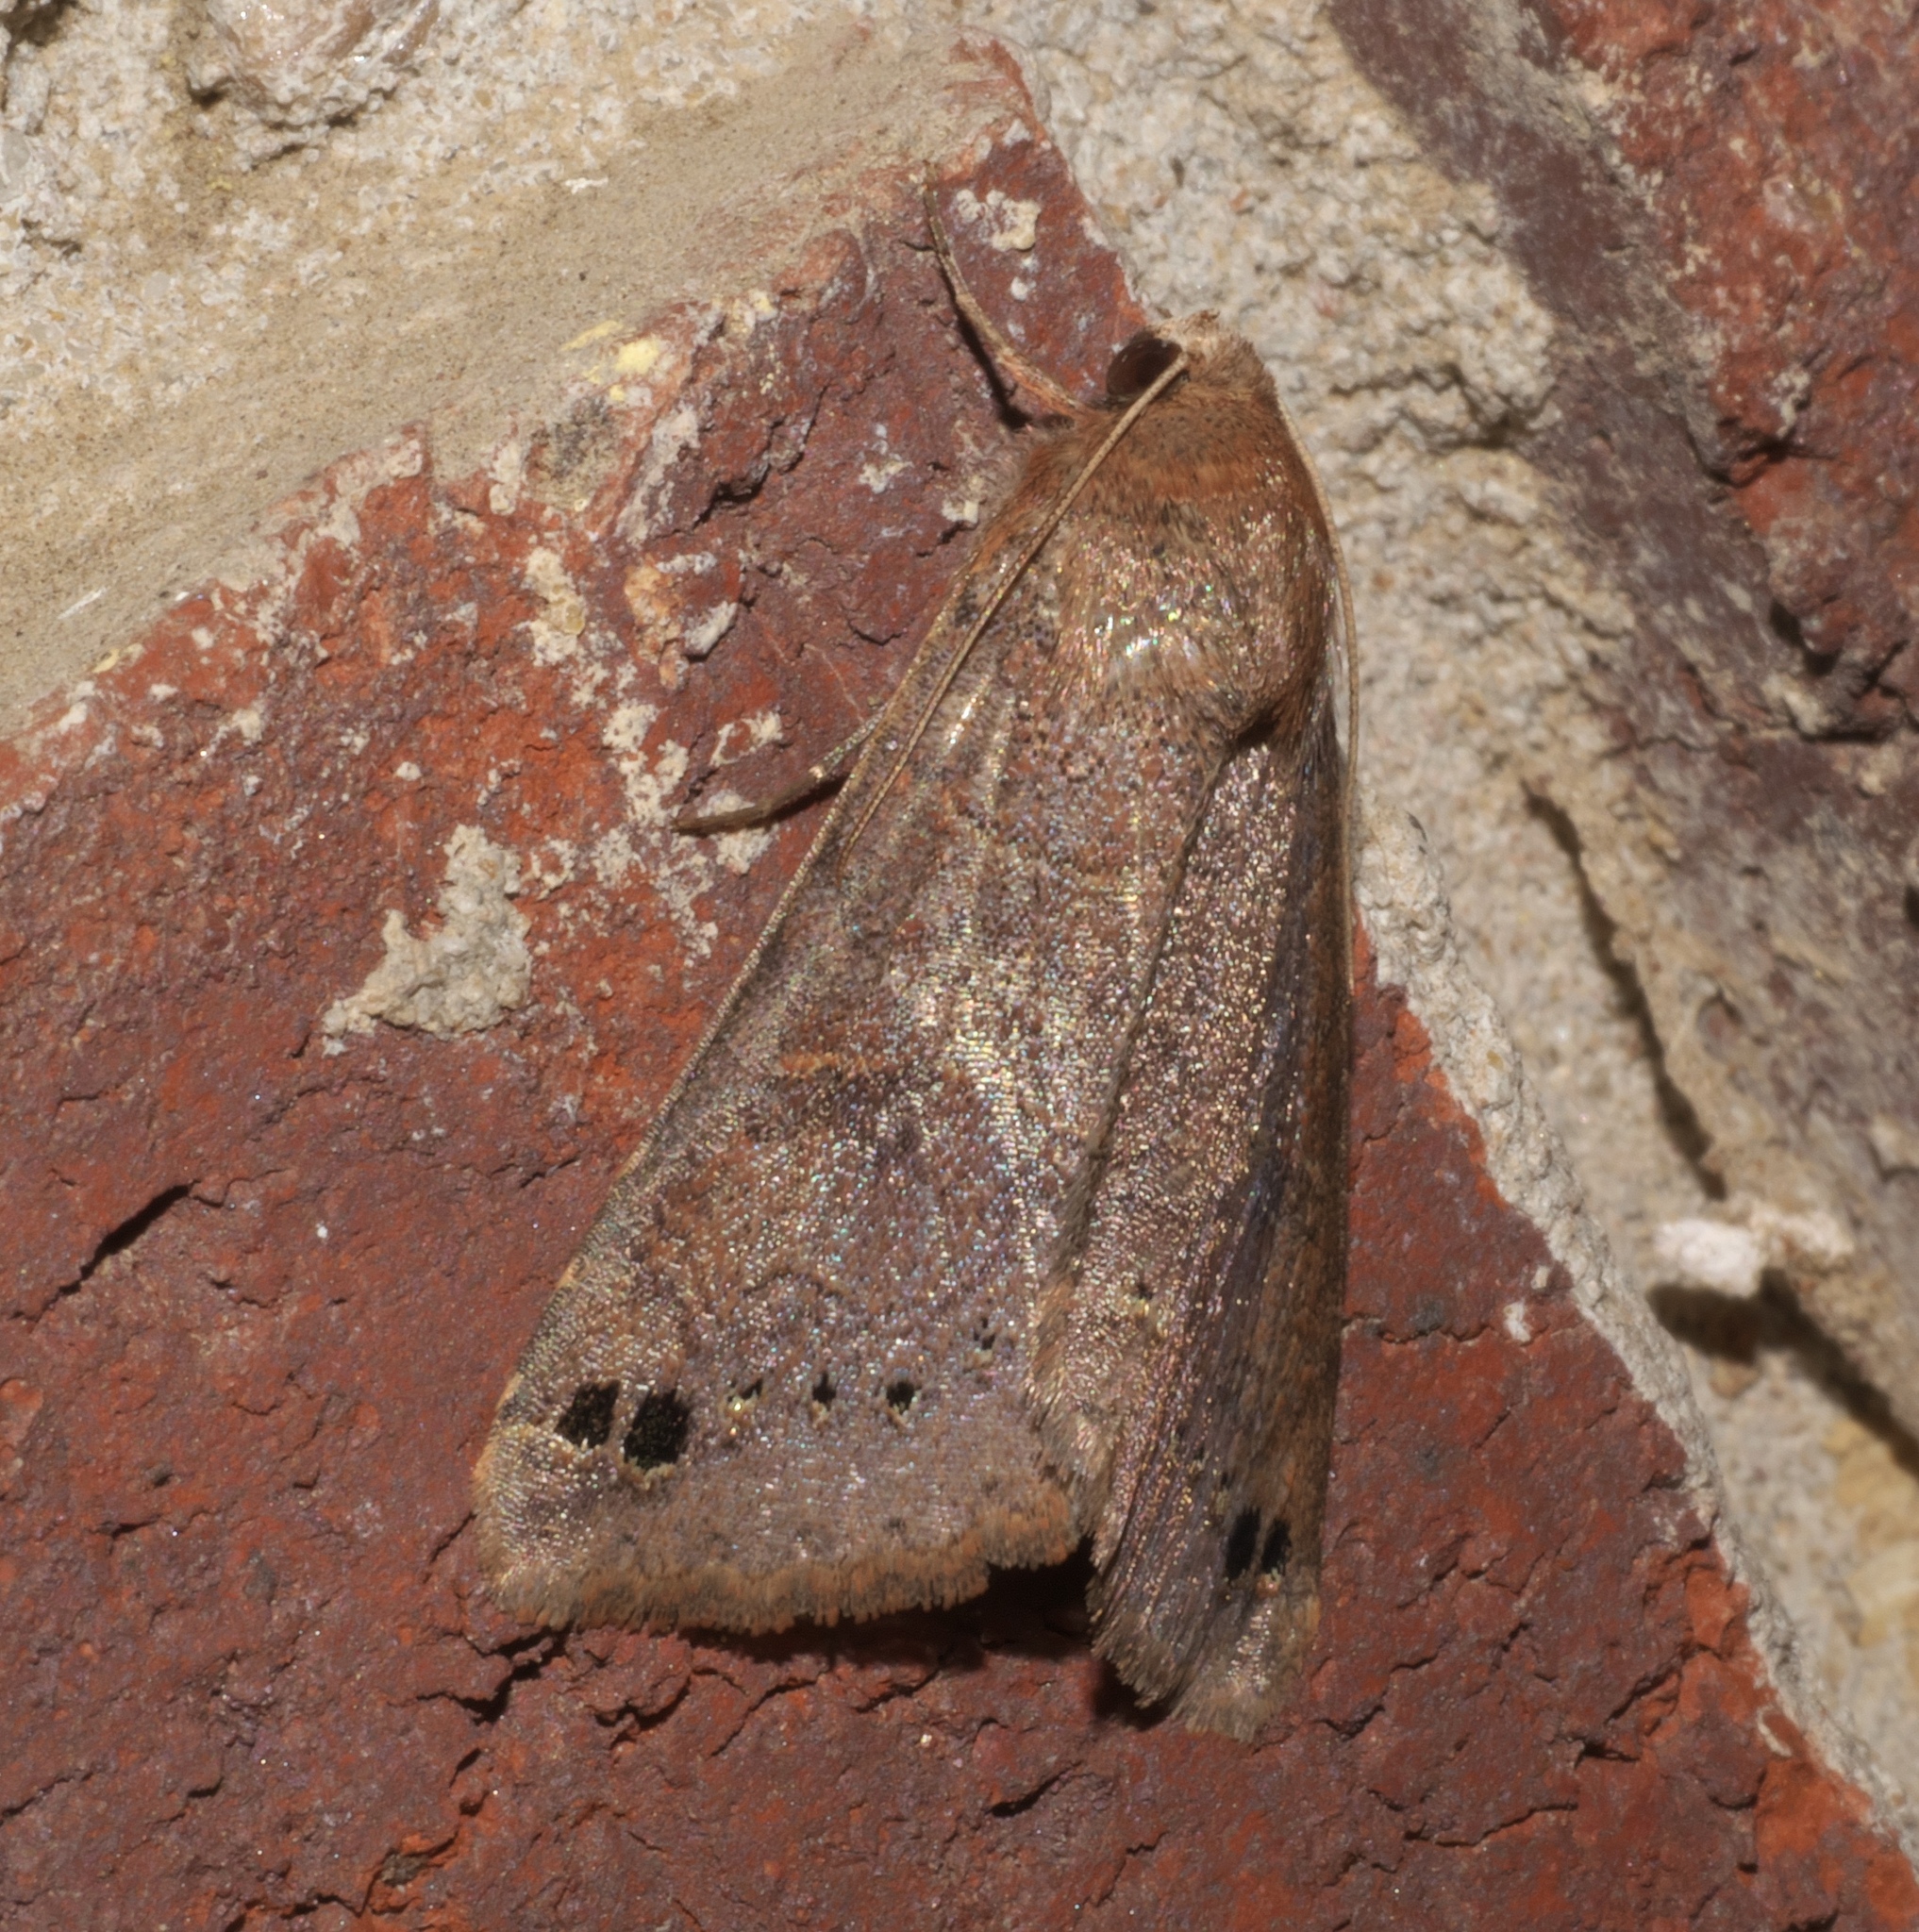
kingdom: Animalia
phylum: Arthropoda
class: Insecta
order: Lepidoptera
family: Erebidae
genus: Cissusa
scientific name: Cissusa spadix
